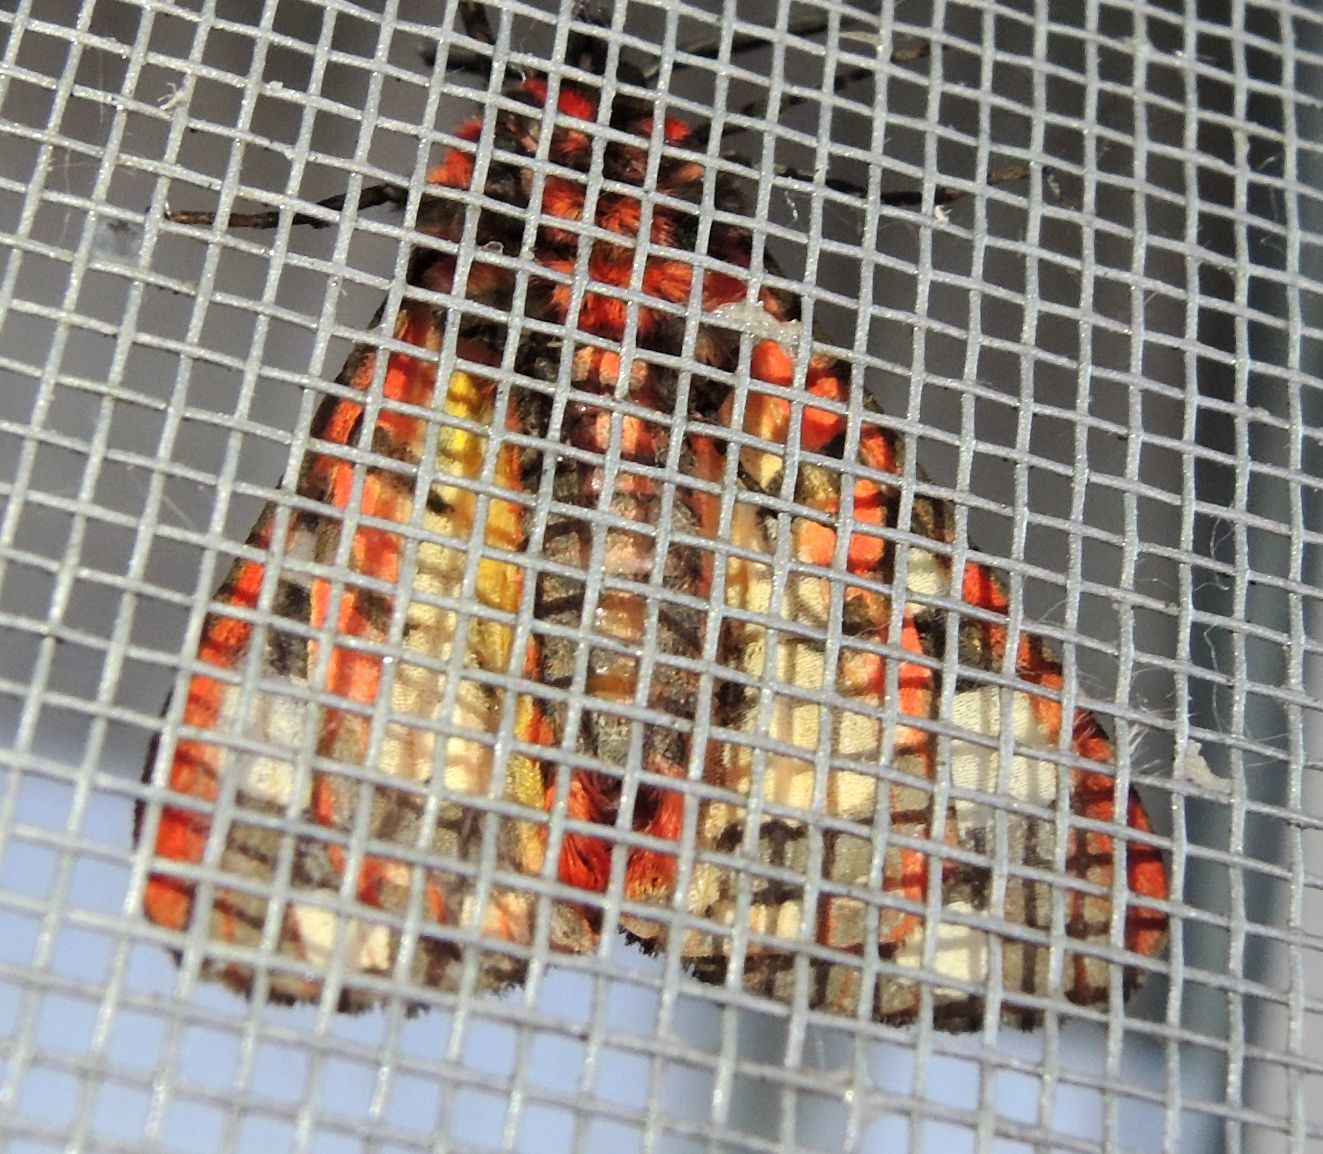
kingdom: Animalia
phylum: Arthropoda
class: Insecta
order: Lepidoptera
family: Erebidae
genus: Epicallia
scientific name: Epicallia villica
